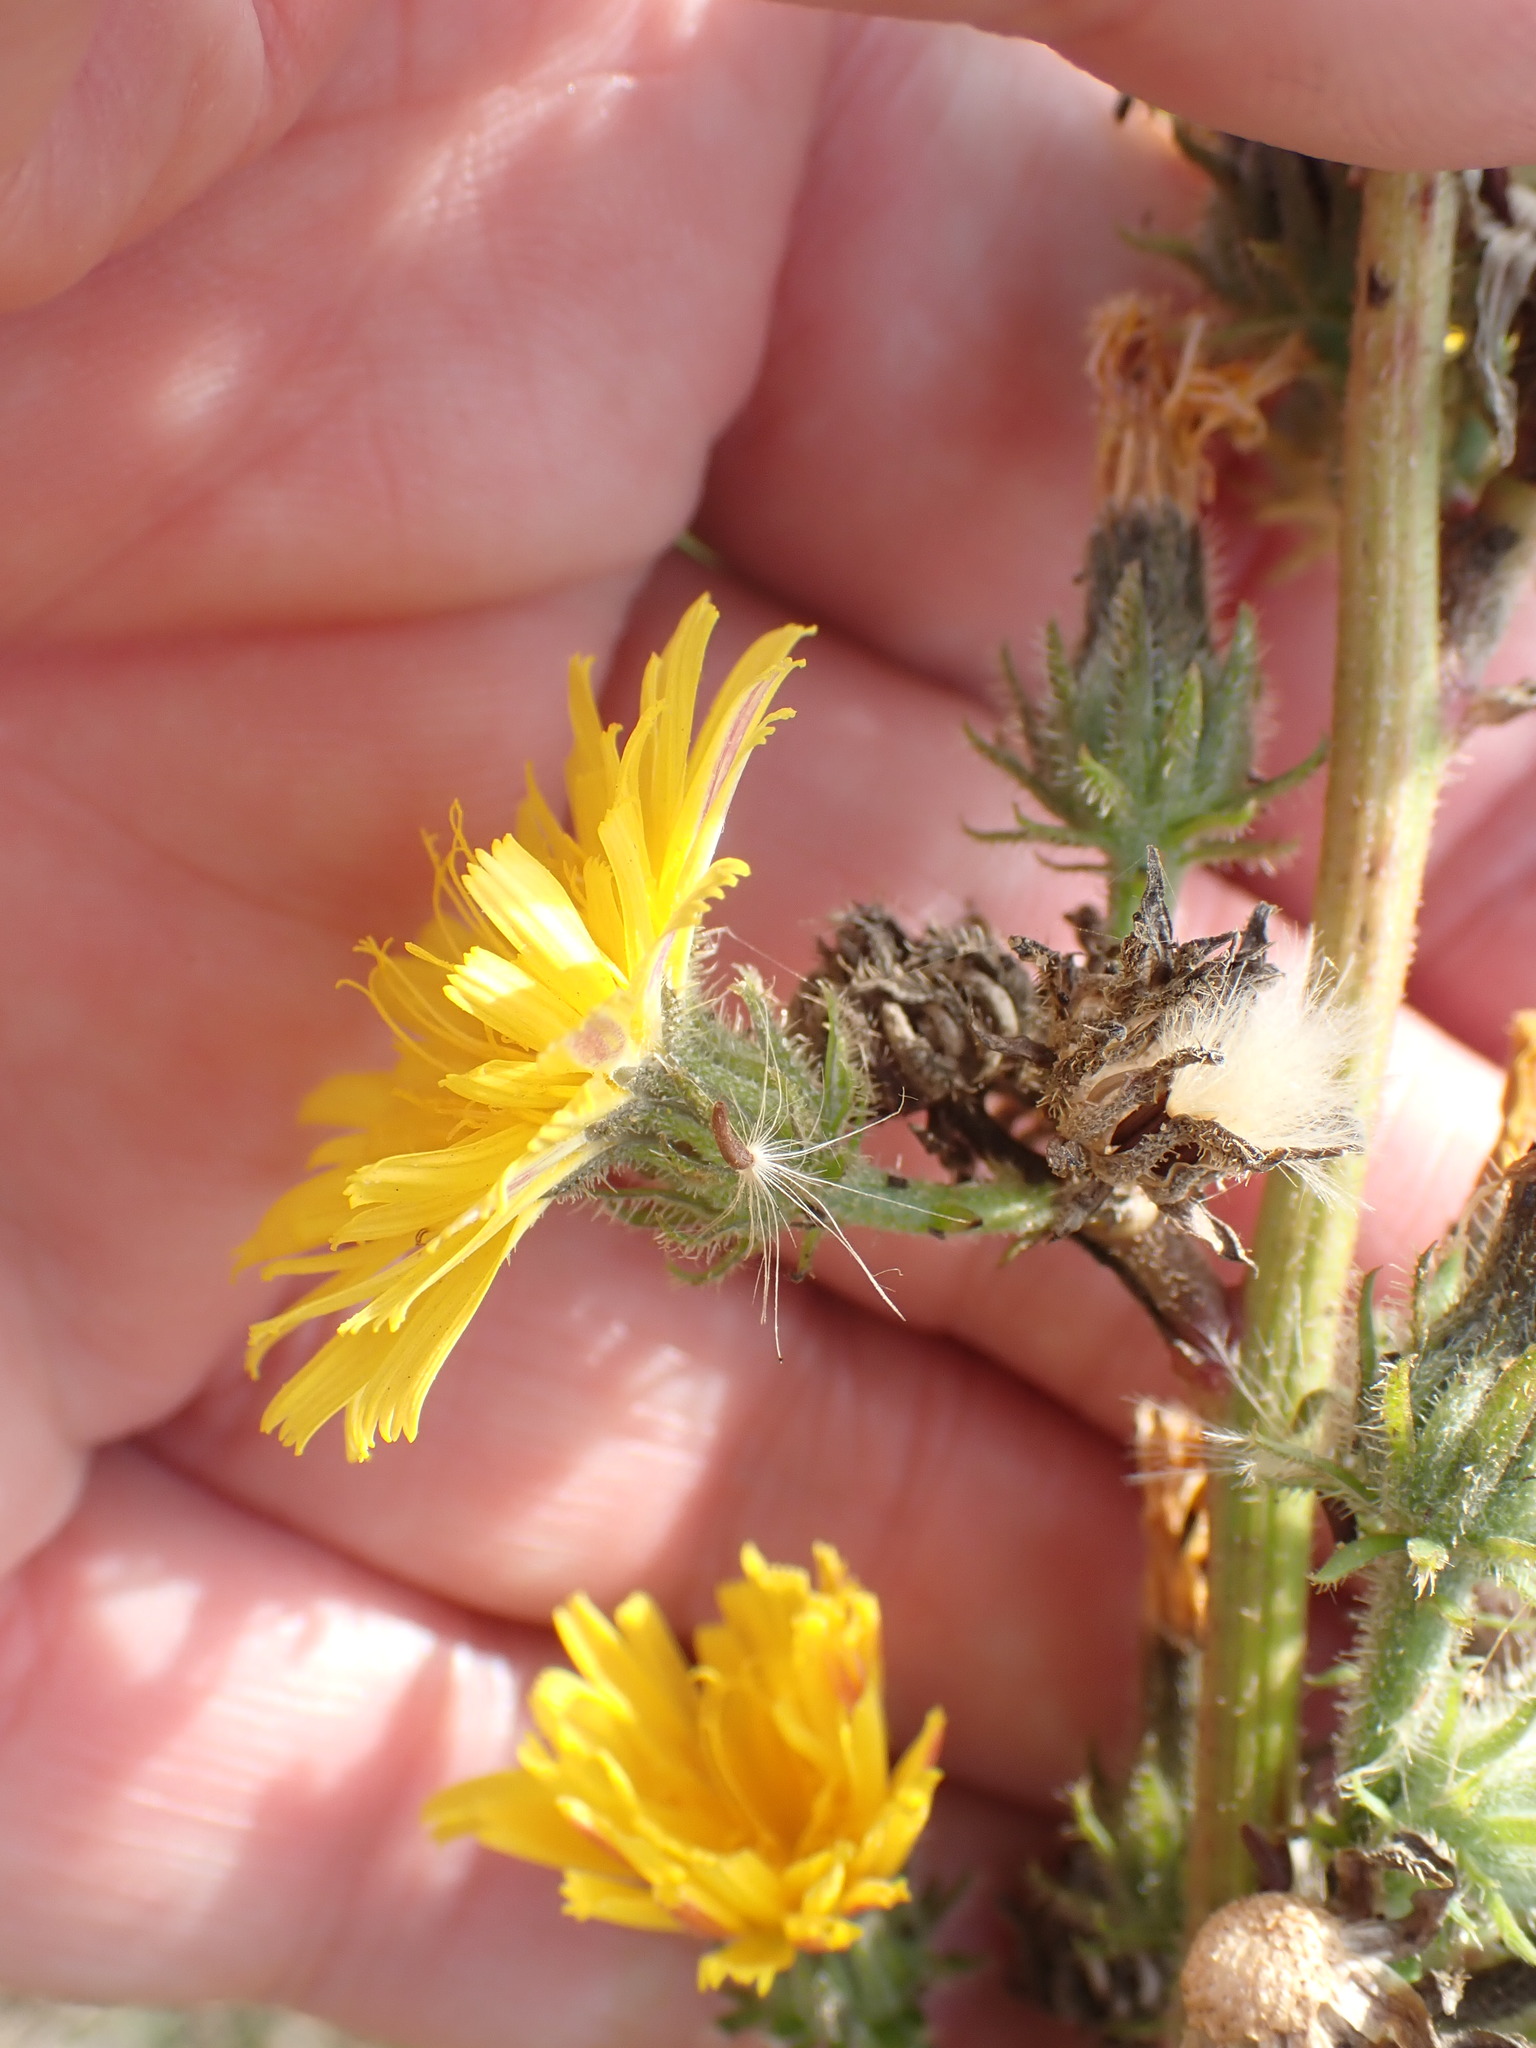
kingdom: Plantae
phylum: Tracheophyta
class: Magnoliopsida
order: Asterales
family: Asteraceae
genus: Picris
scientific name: Picris hieracioides
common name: Hawkweed oxtongue
